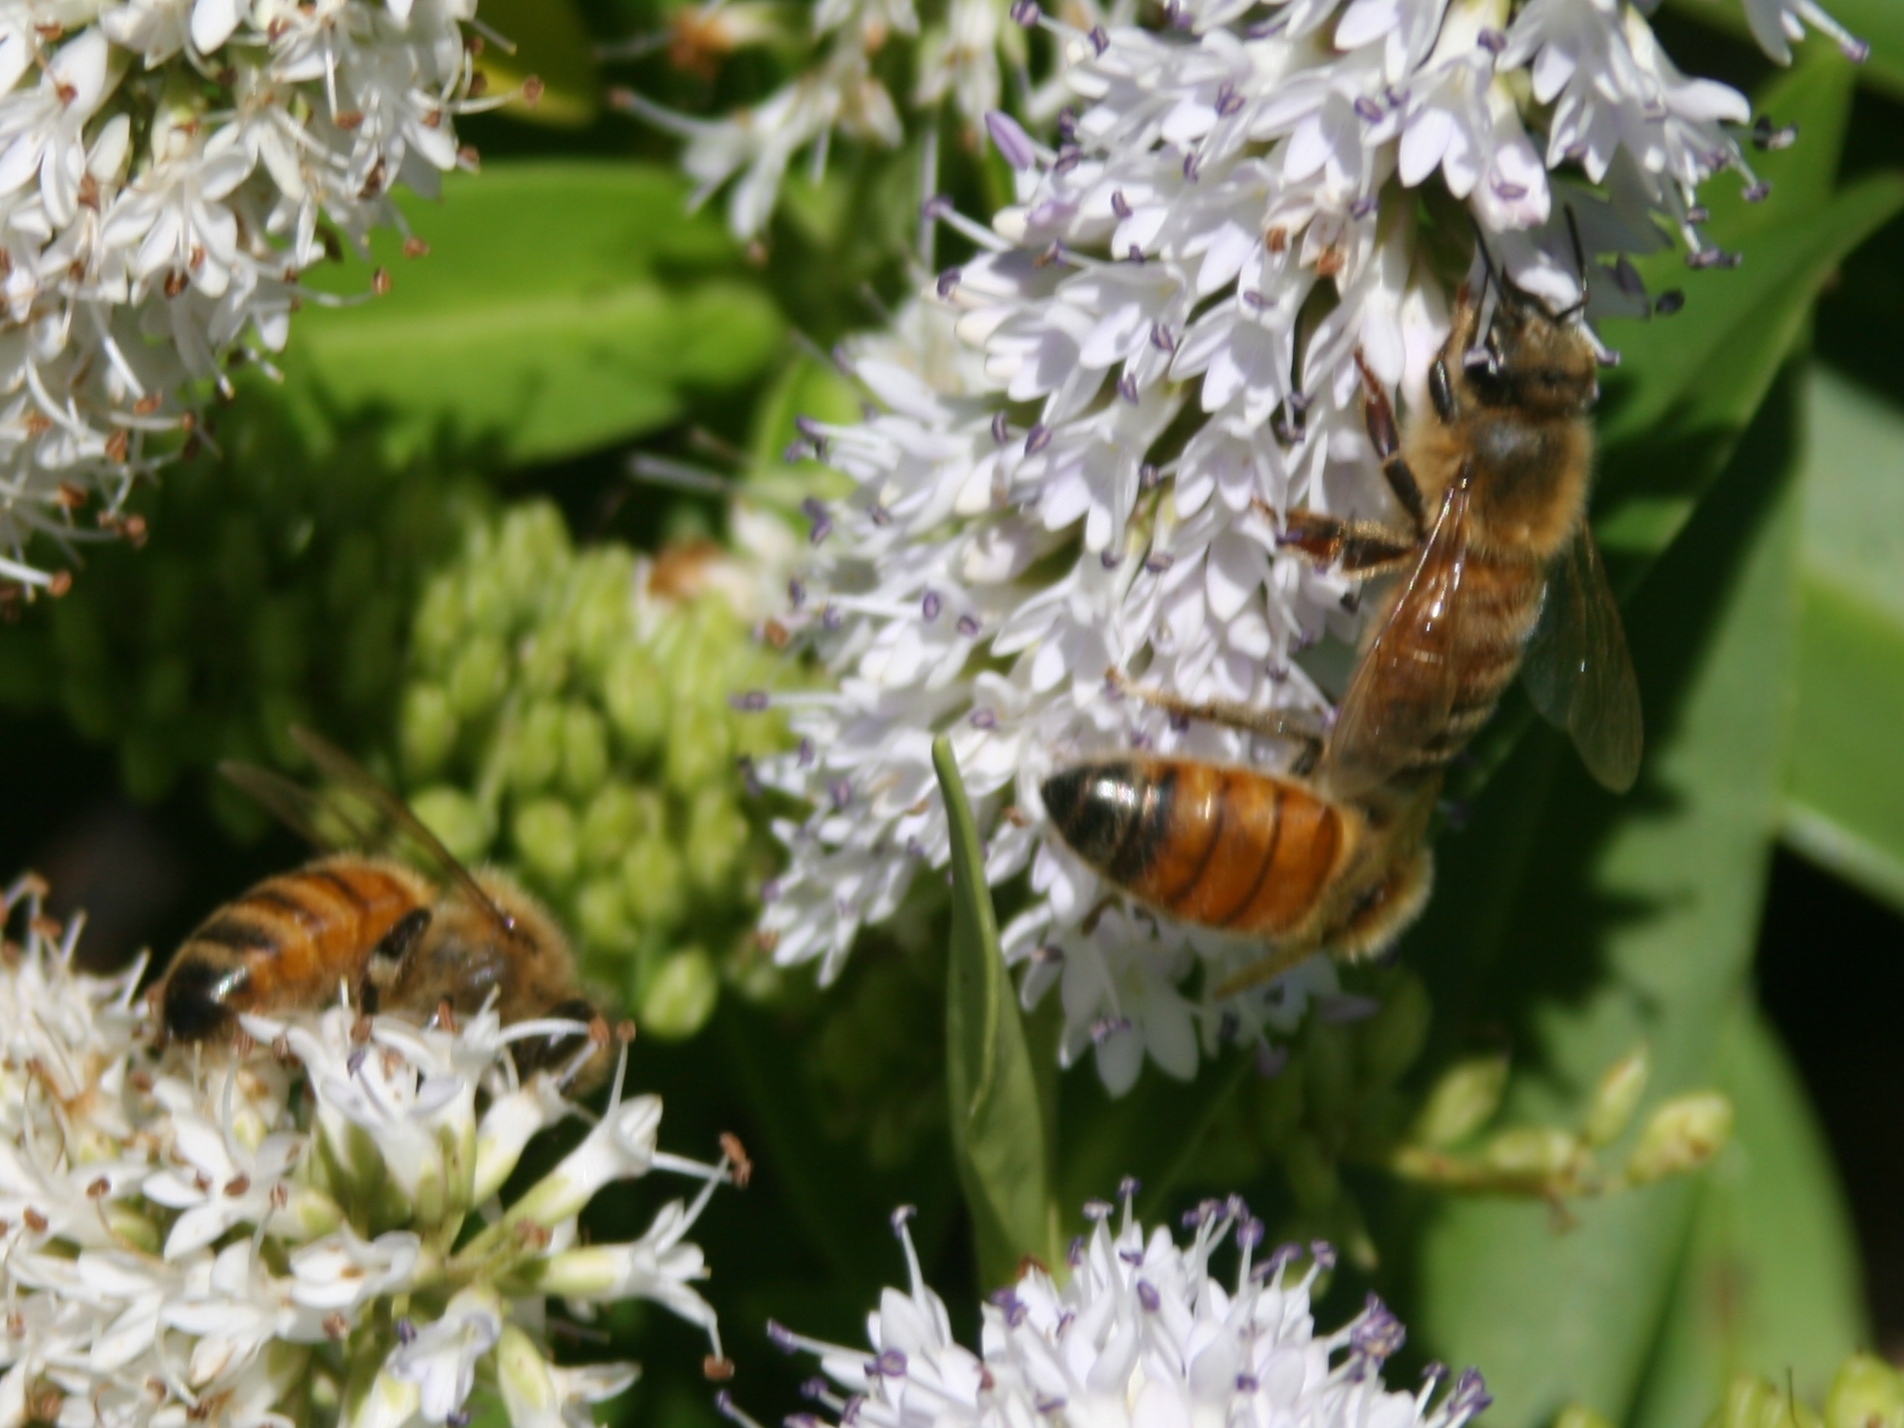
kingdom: Animalia
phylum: Arthropoda
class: Insecta
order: Hymenoptera
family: Apidae
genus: Apis
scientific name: Apis mellifera
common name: Honey bee
